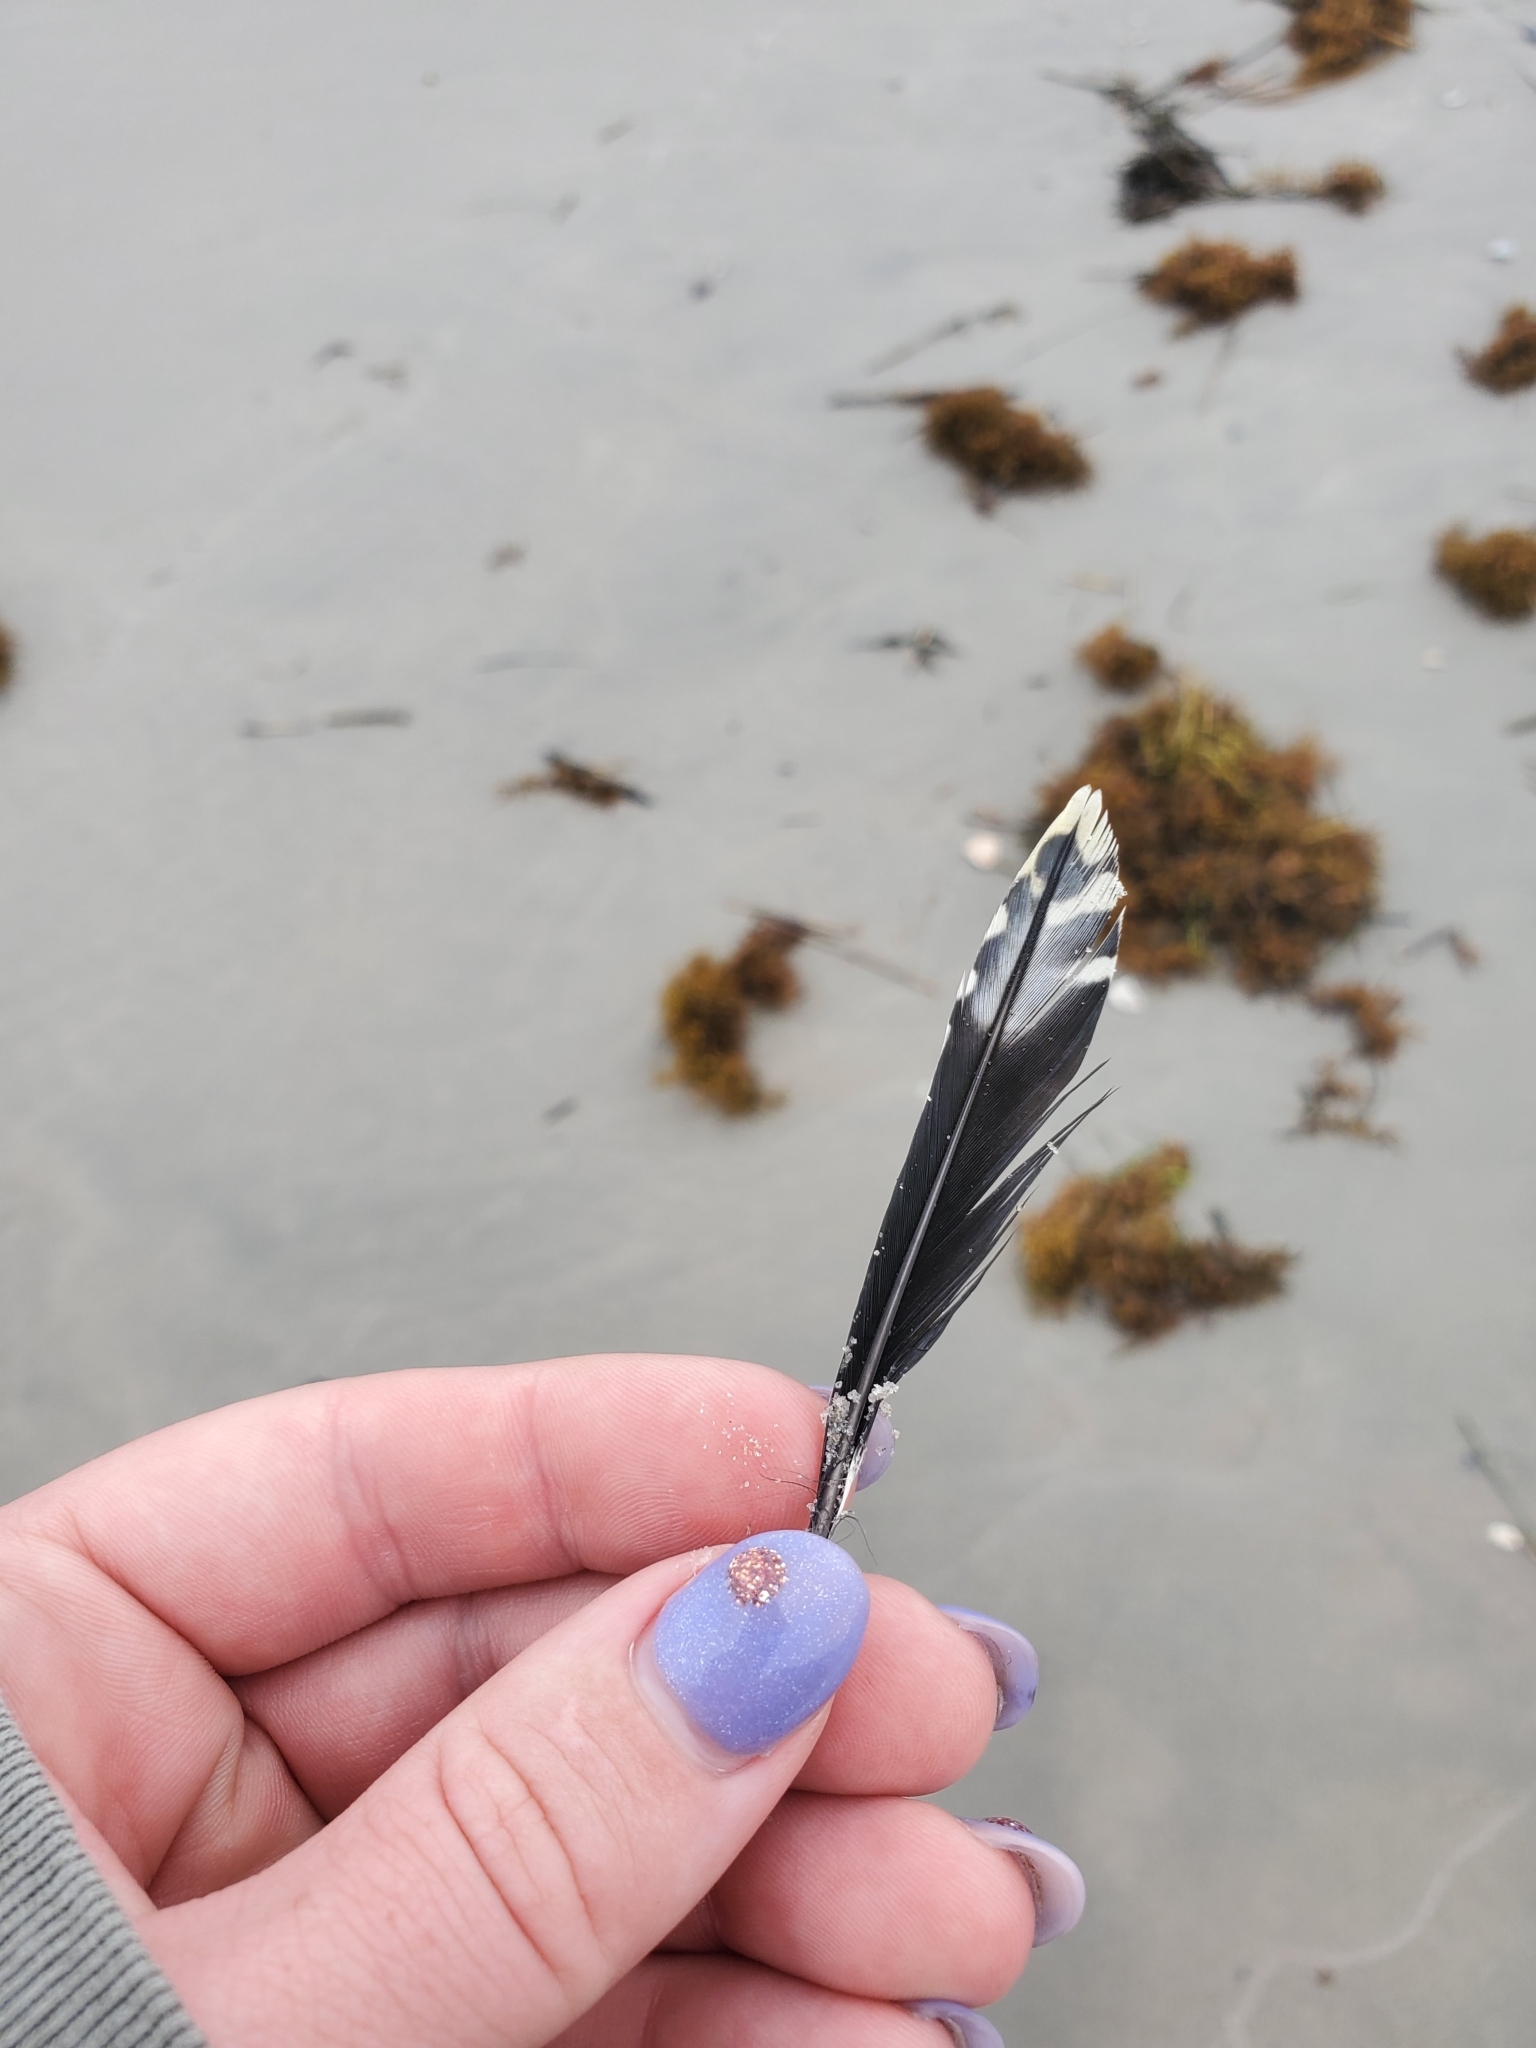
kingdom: Animalia
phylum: Chordata
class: Aves
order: Piciformes
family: Picidae
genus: Melanerpes
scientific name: Melanerpes carolinus
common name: Red-bellied woodpecker
